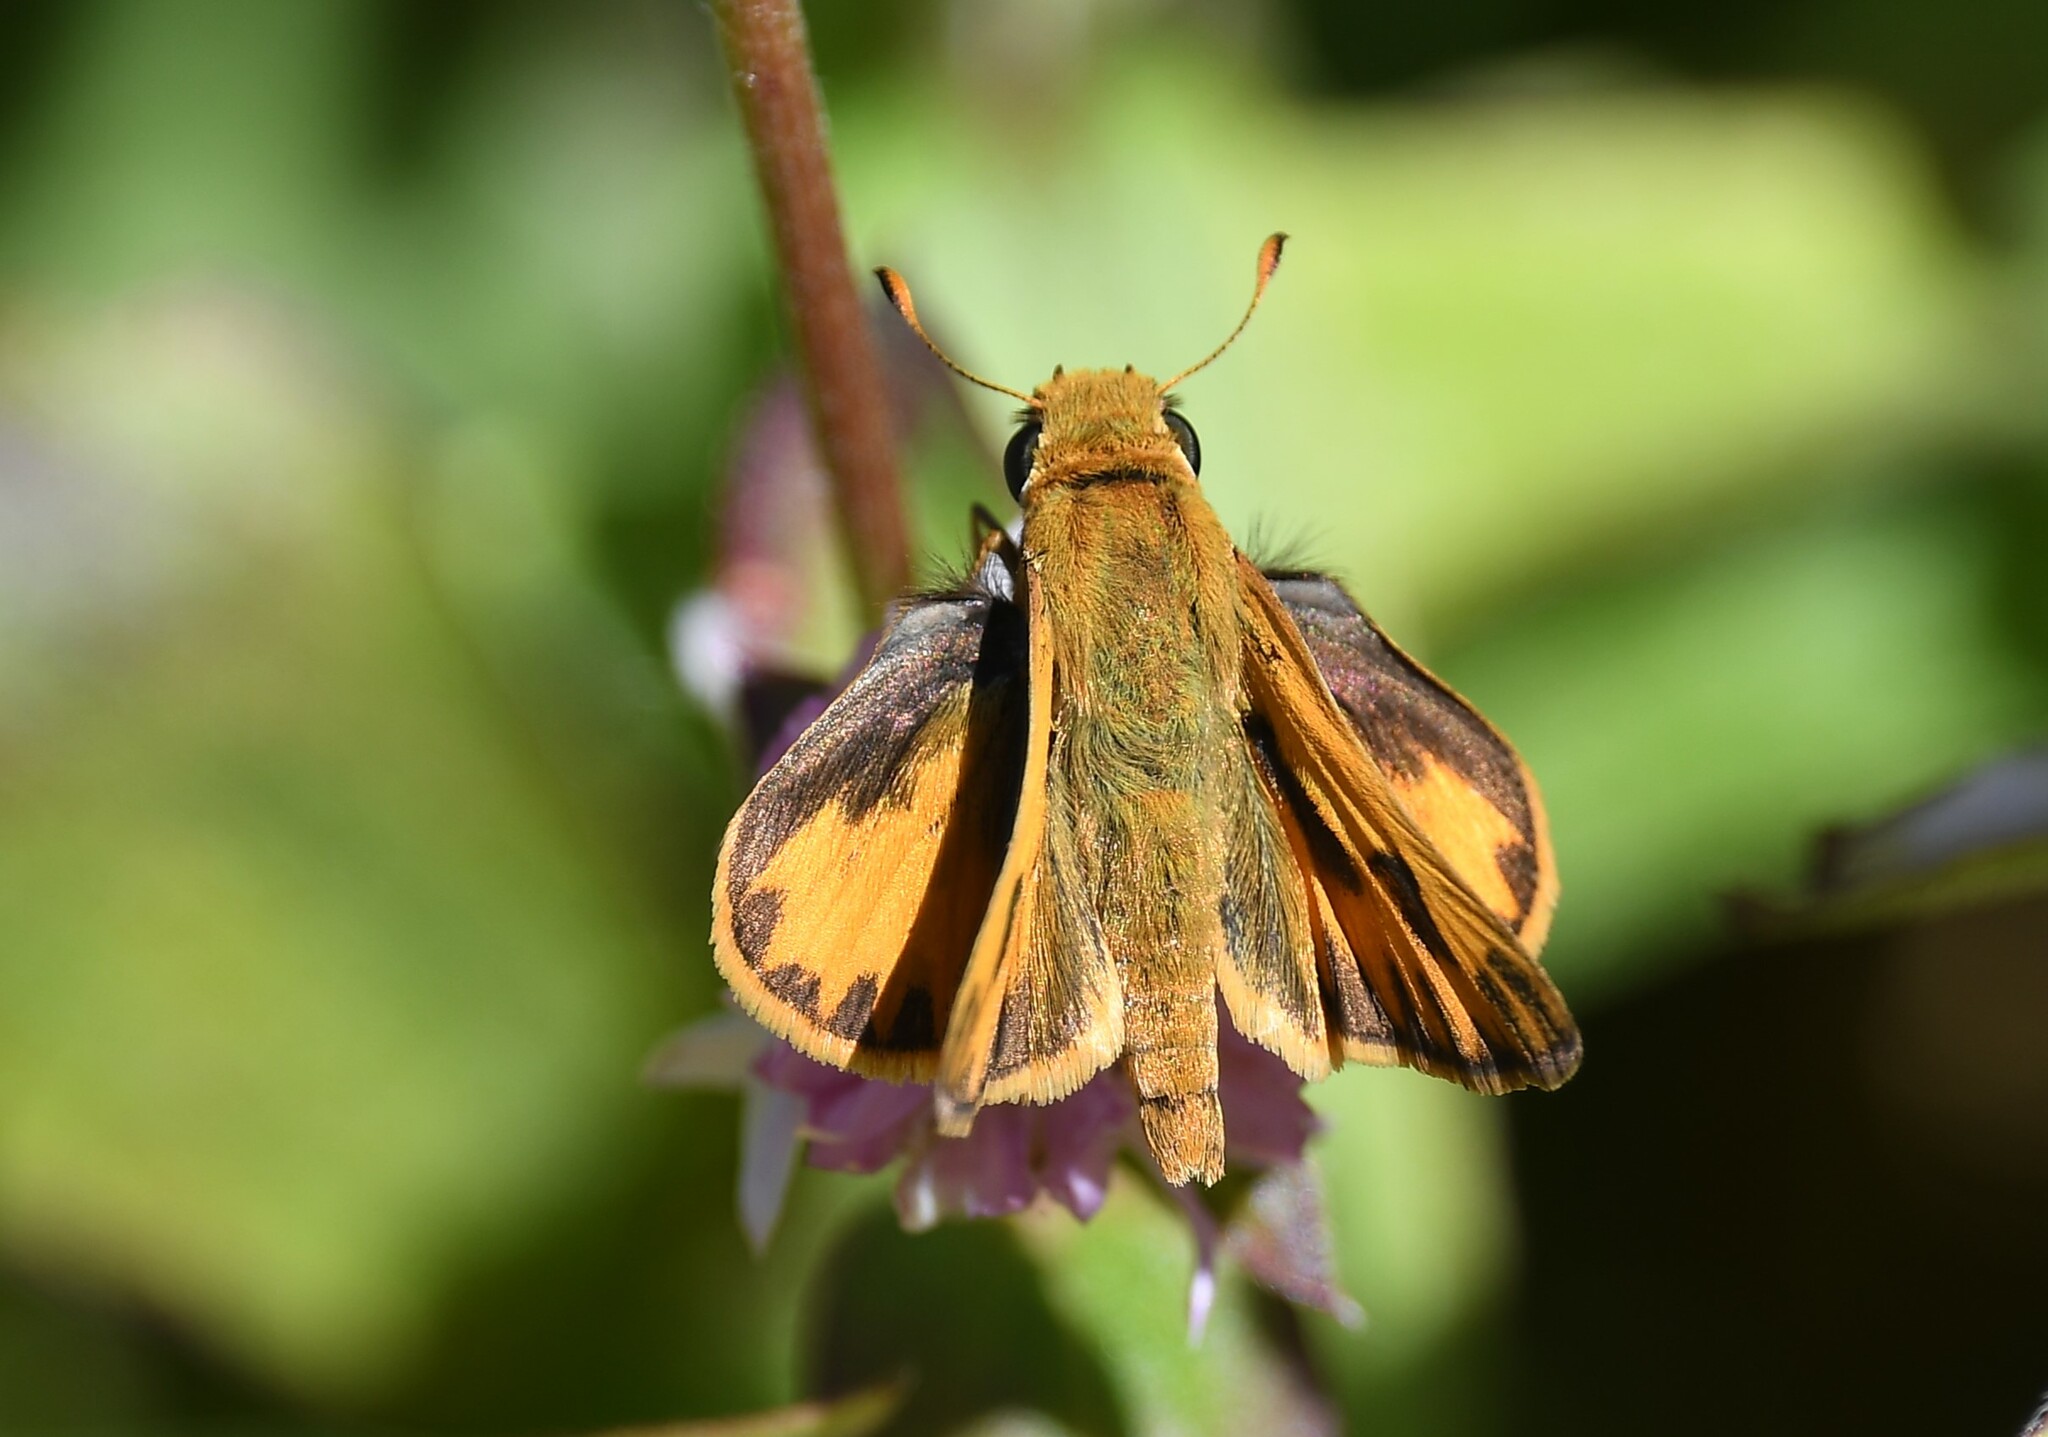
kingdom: Animalia
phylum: Arthropoda
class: Insecta
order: Lepidoptera
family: Hesperiidae
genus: Hylephila
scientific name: Hylephila phyleus
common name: Fiery skipper
